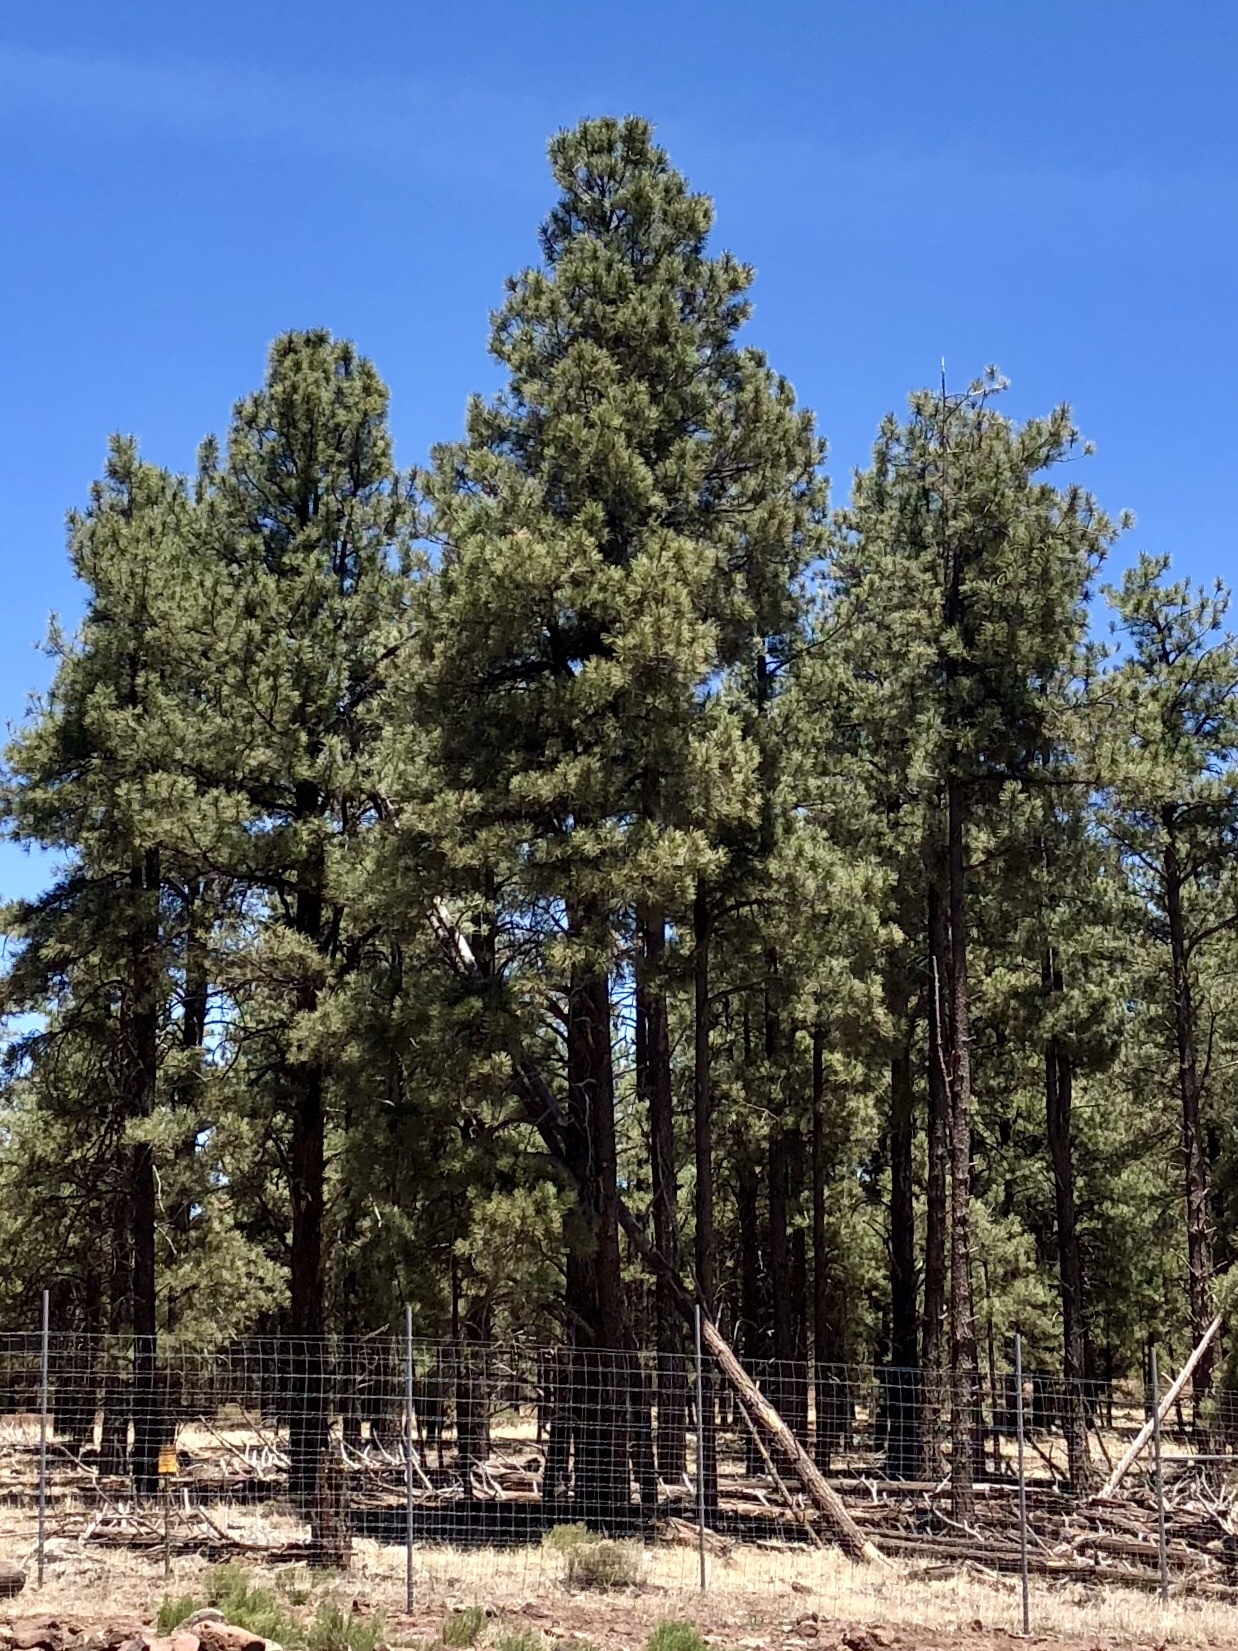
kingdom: Plantae
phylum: Tracheophyta
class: Pinopsida
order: Pinales
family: Pinaceae
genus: Pinus
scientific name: Pinus ponderosa
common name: Western yellow-pine
